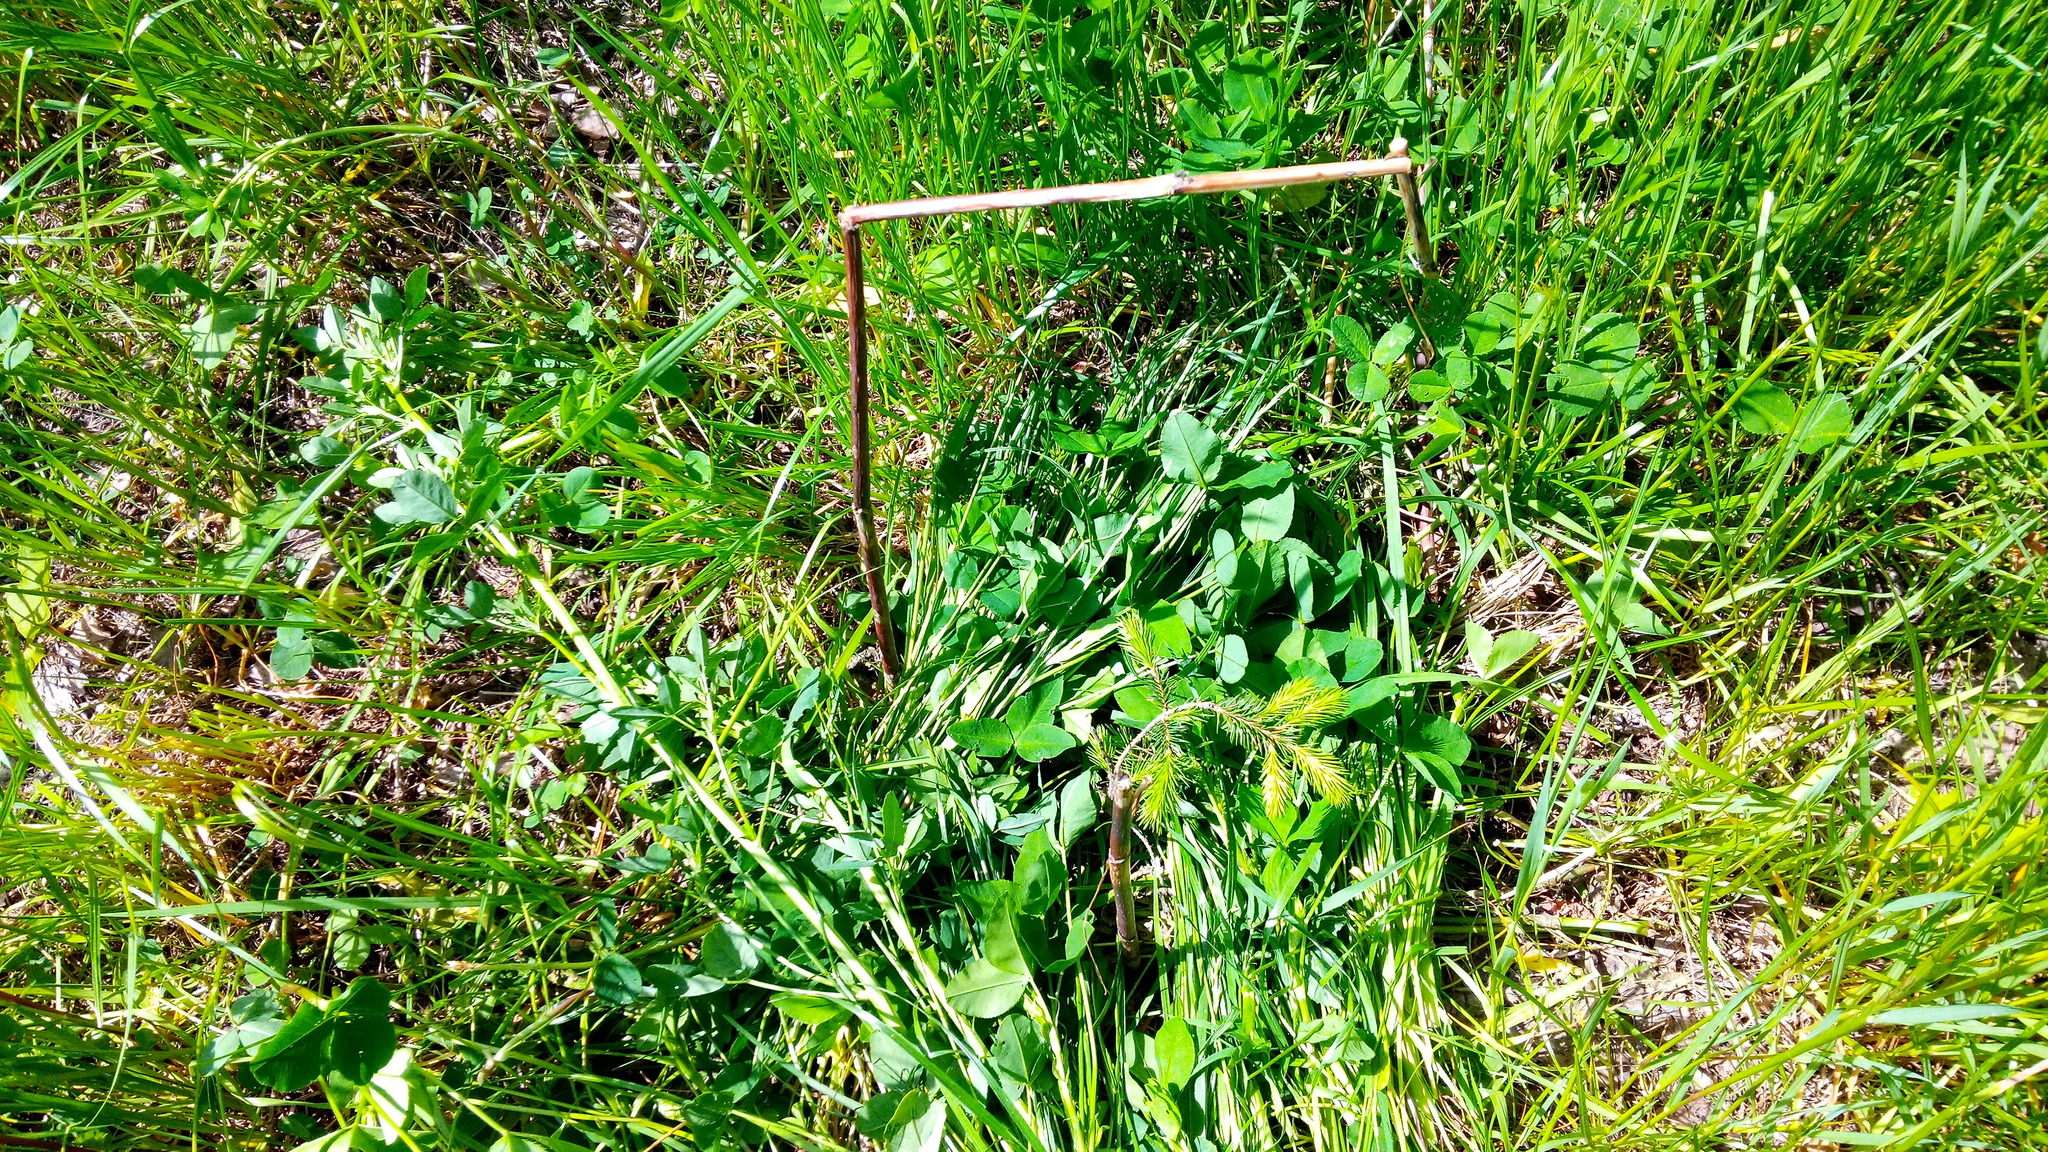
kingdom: Plantae
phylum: Tracheophyta
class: Pinopsida
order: Pinales
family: Pinaceae
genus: Picea
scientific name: Picea abies
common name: Norway spruce
